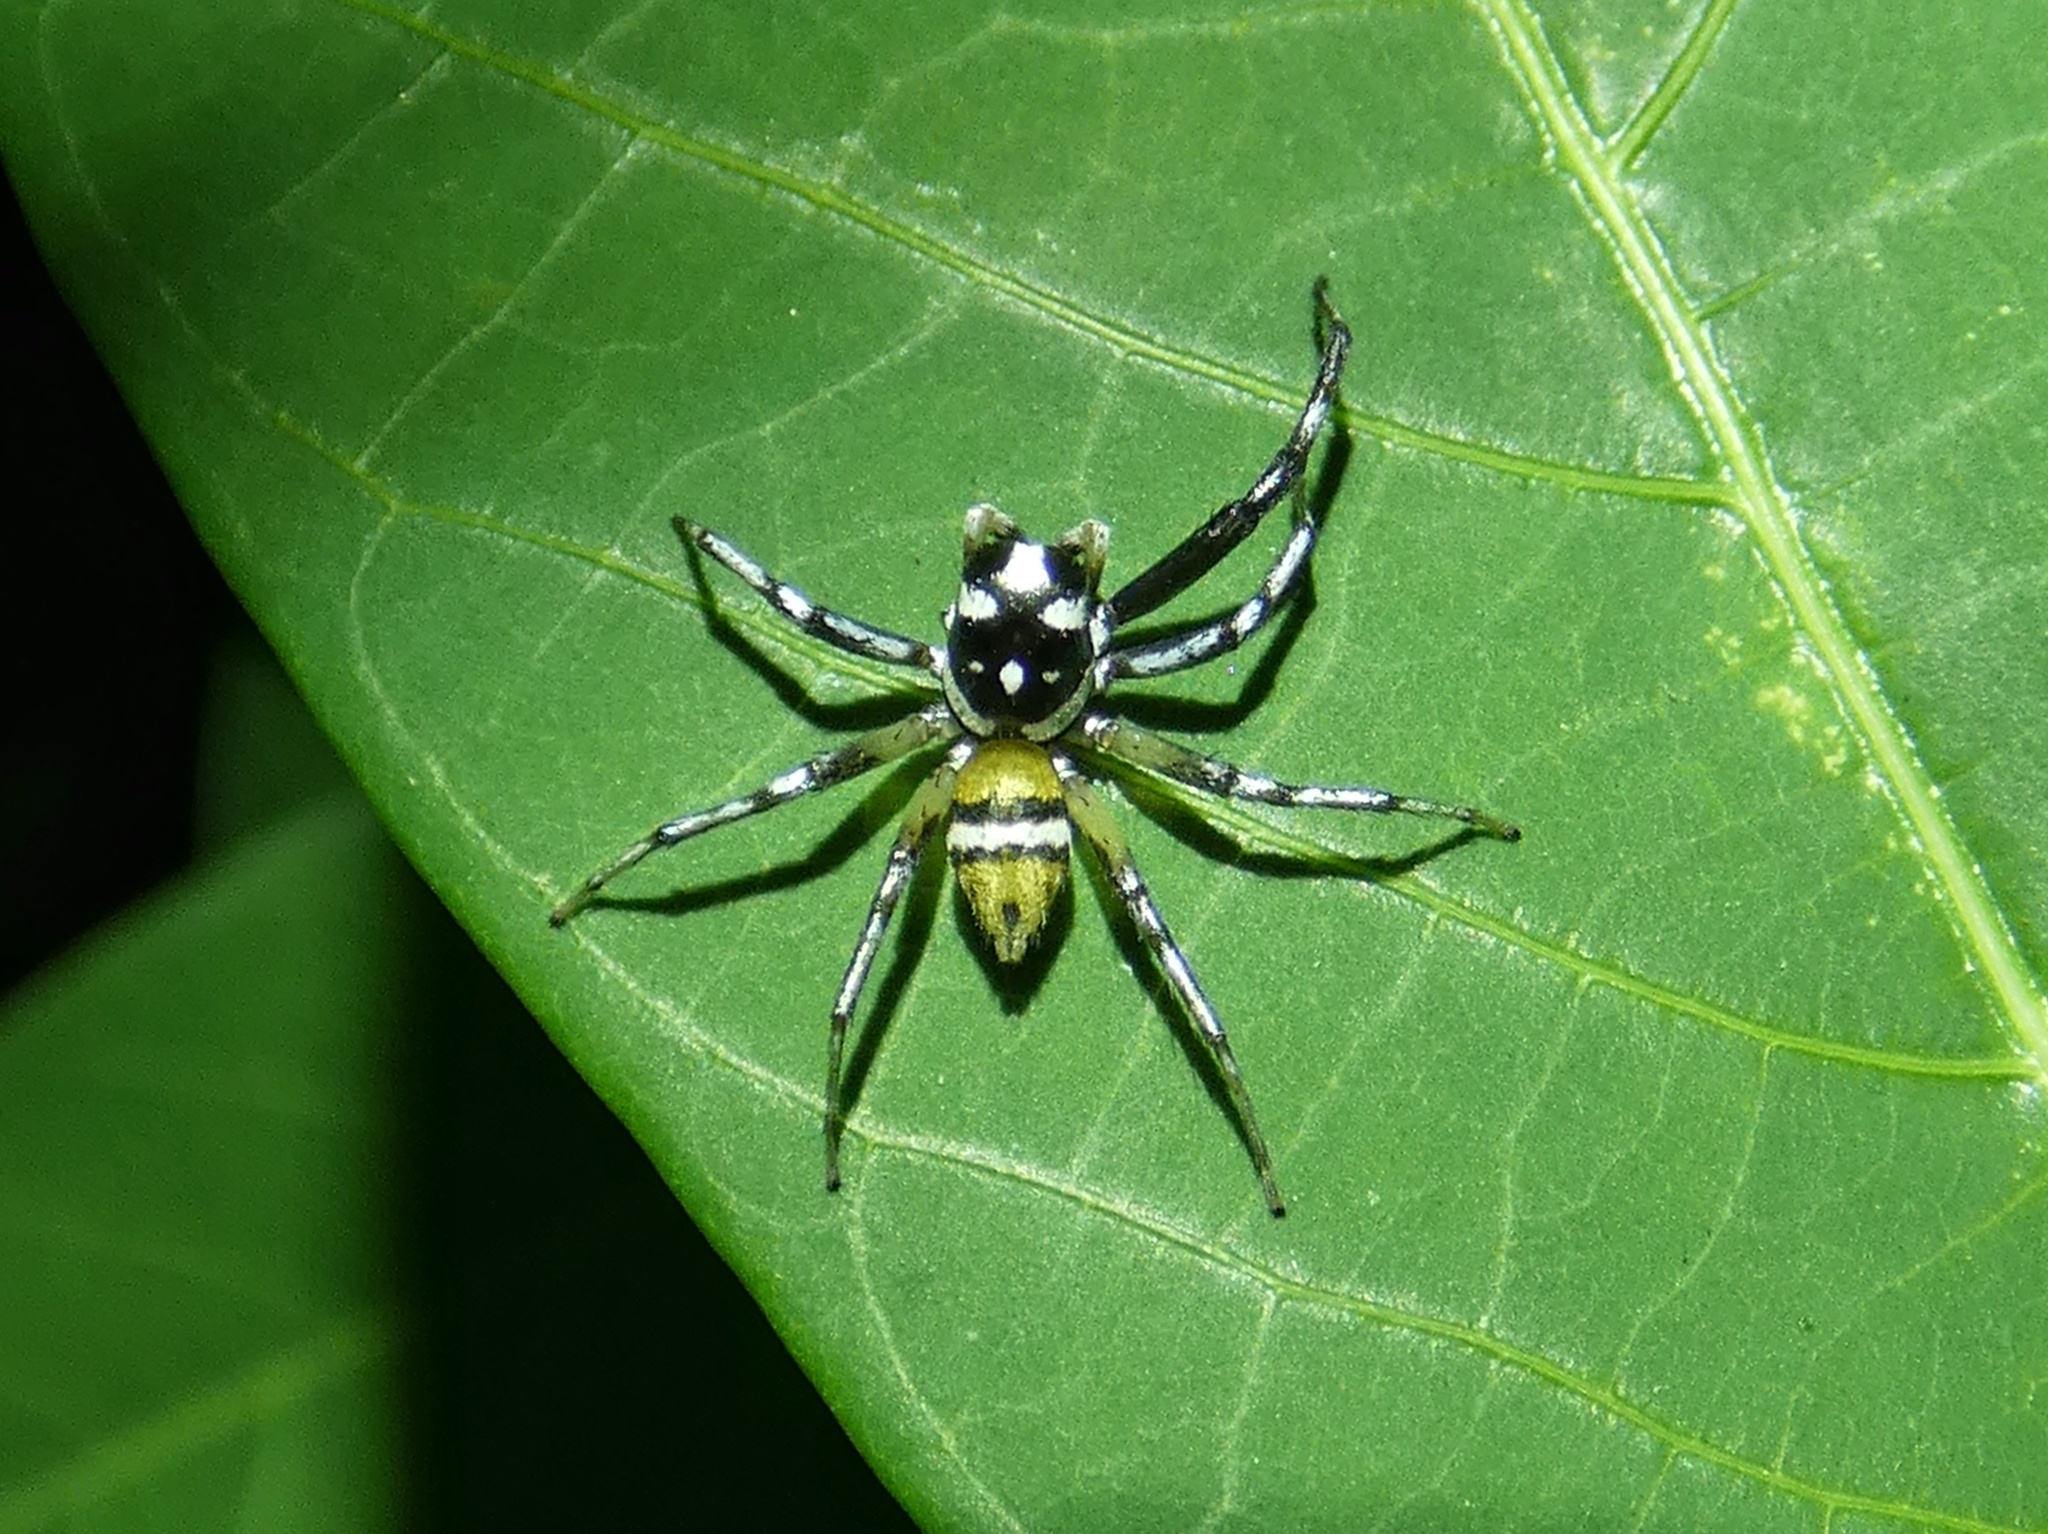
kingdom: Animalia
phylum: Arthropoda
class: Arachnida
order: Araneae
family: Salticidae
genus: Phintella
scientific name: Phintella piatensis
